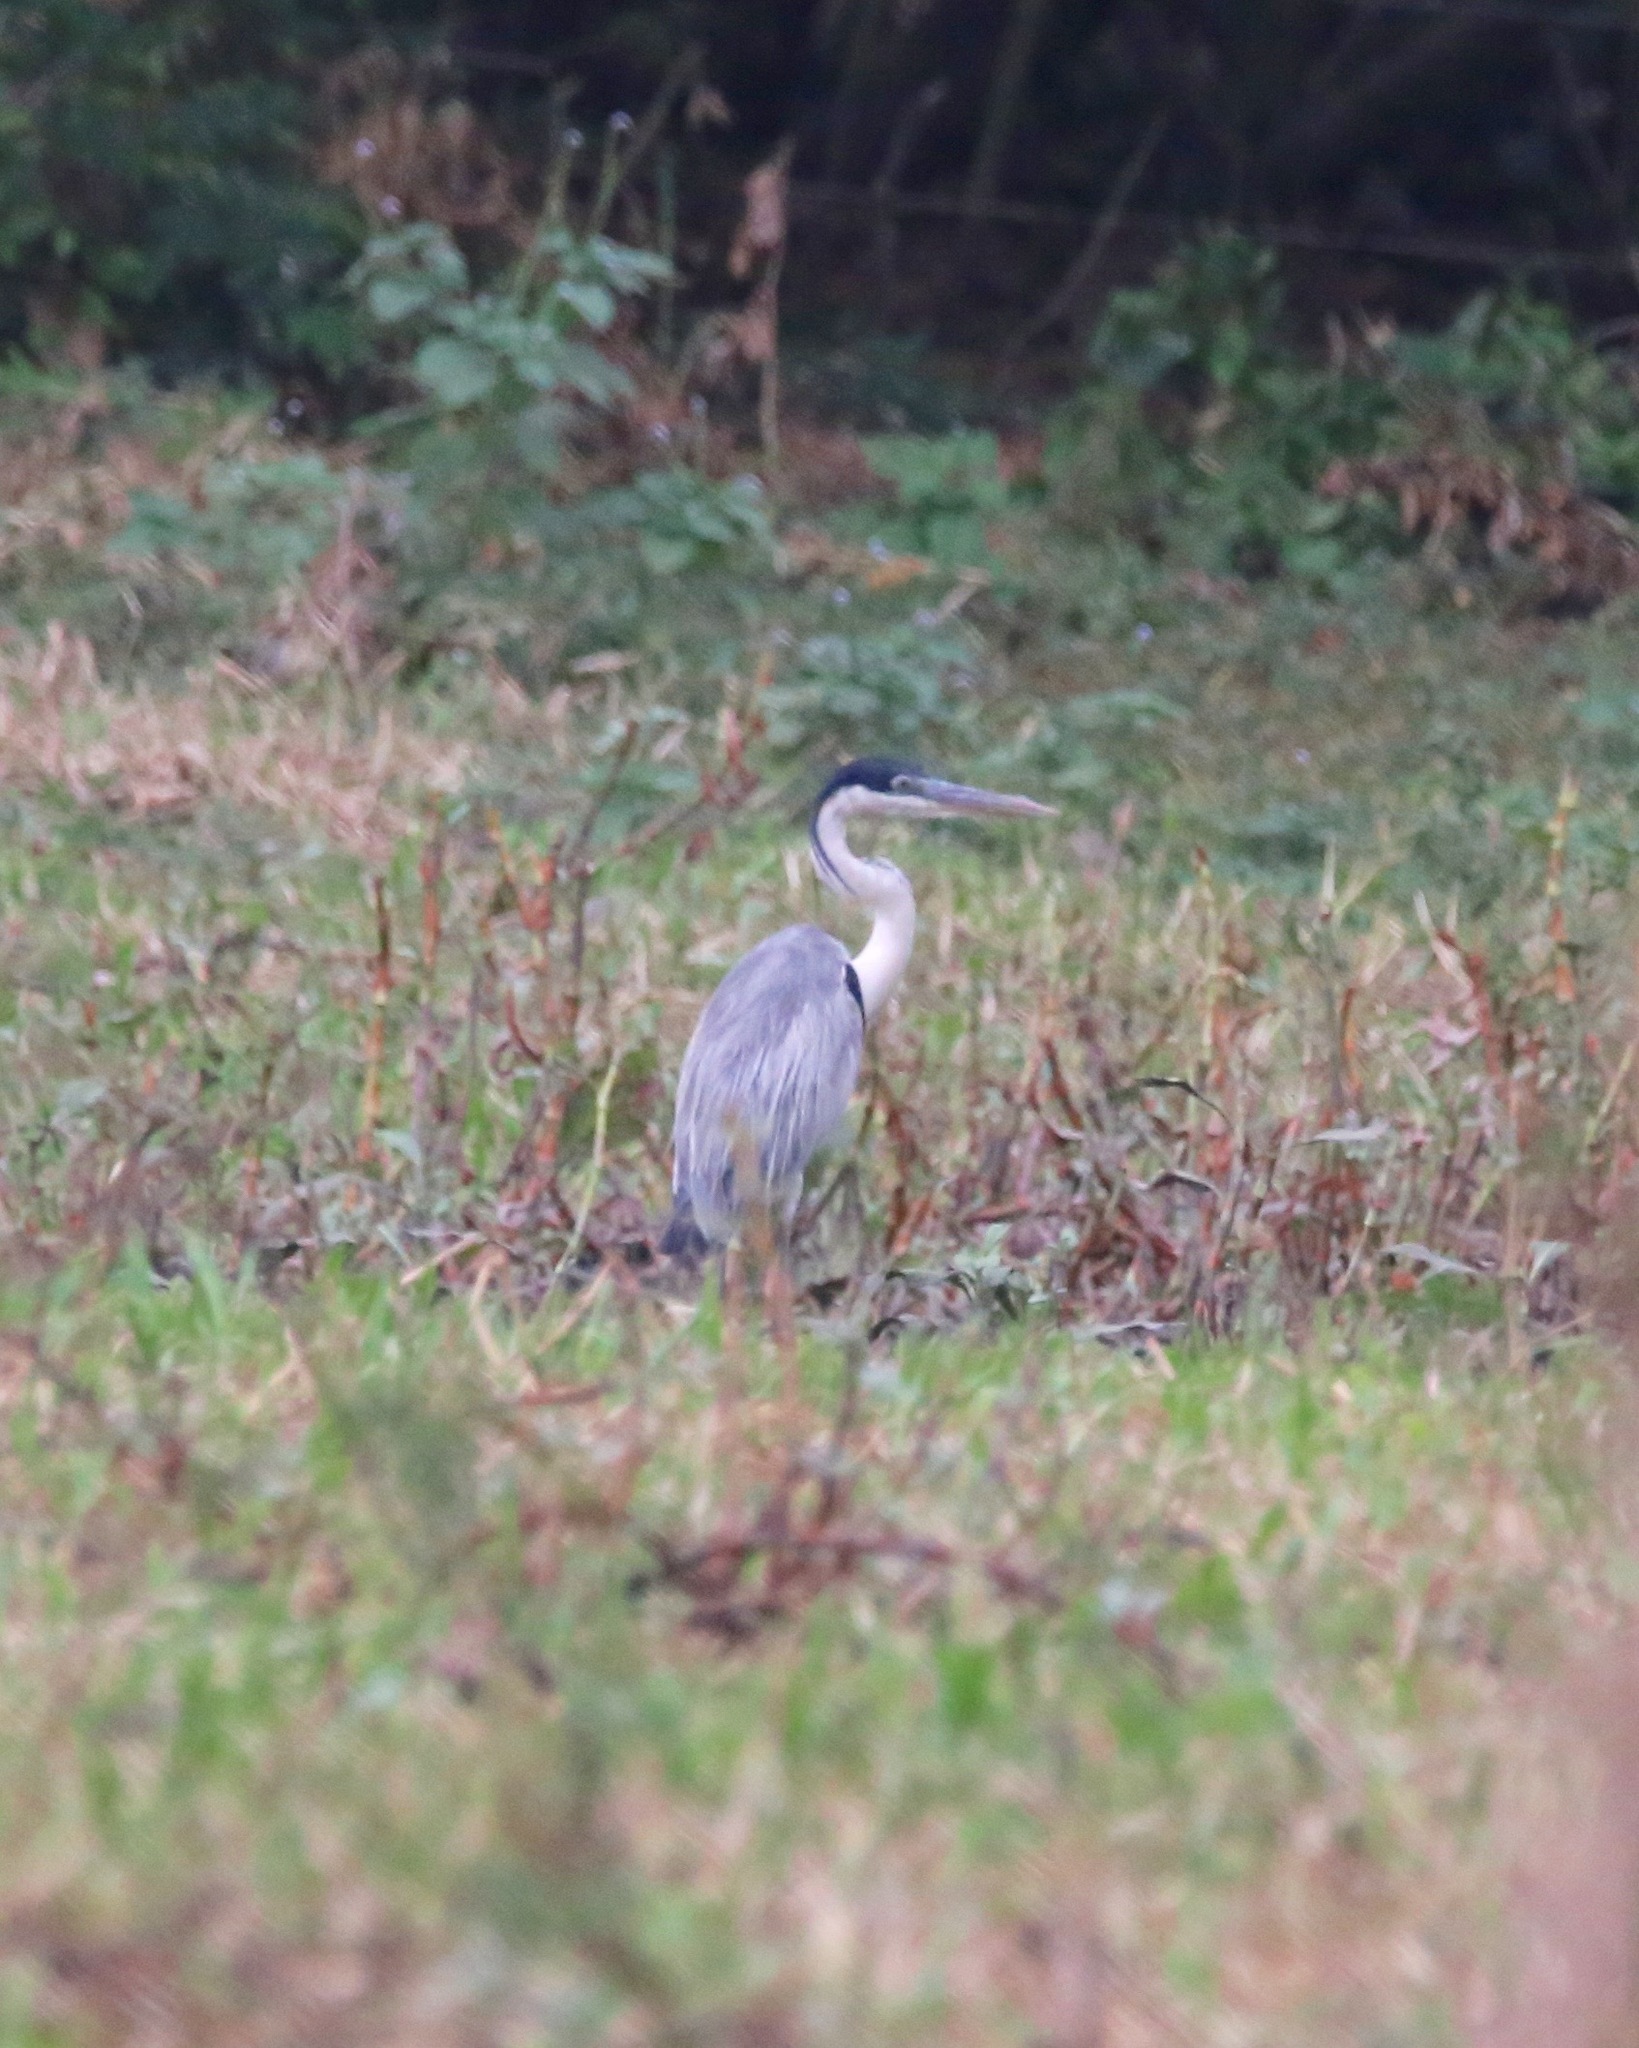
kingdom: Animalia
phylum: Chordata
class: Aves
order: Pelecaniformes
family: Ardeidae
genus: Ardea
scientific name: Ardea cocoi
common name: Cocoi heron
